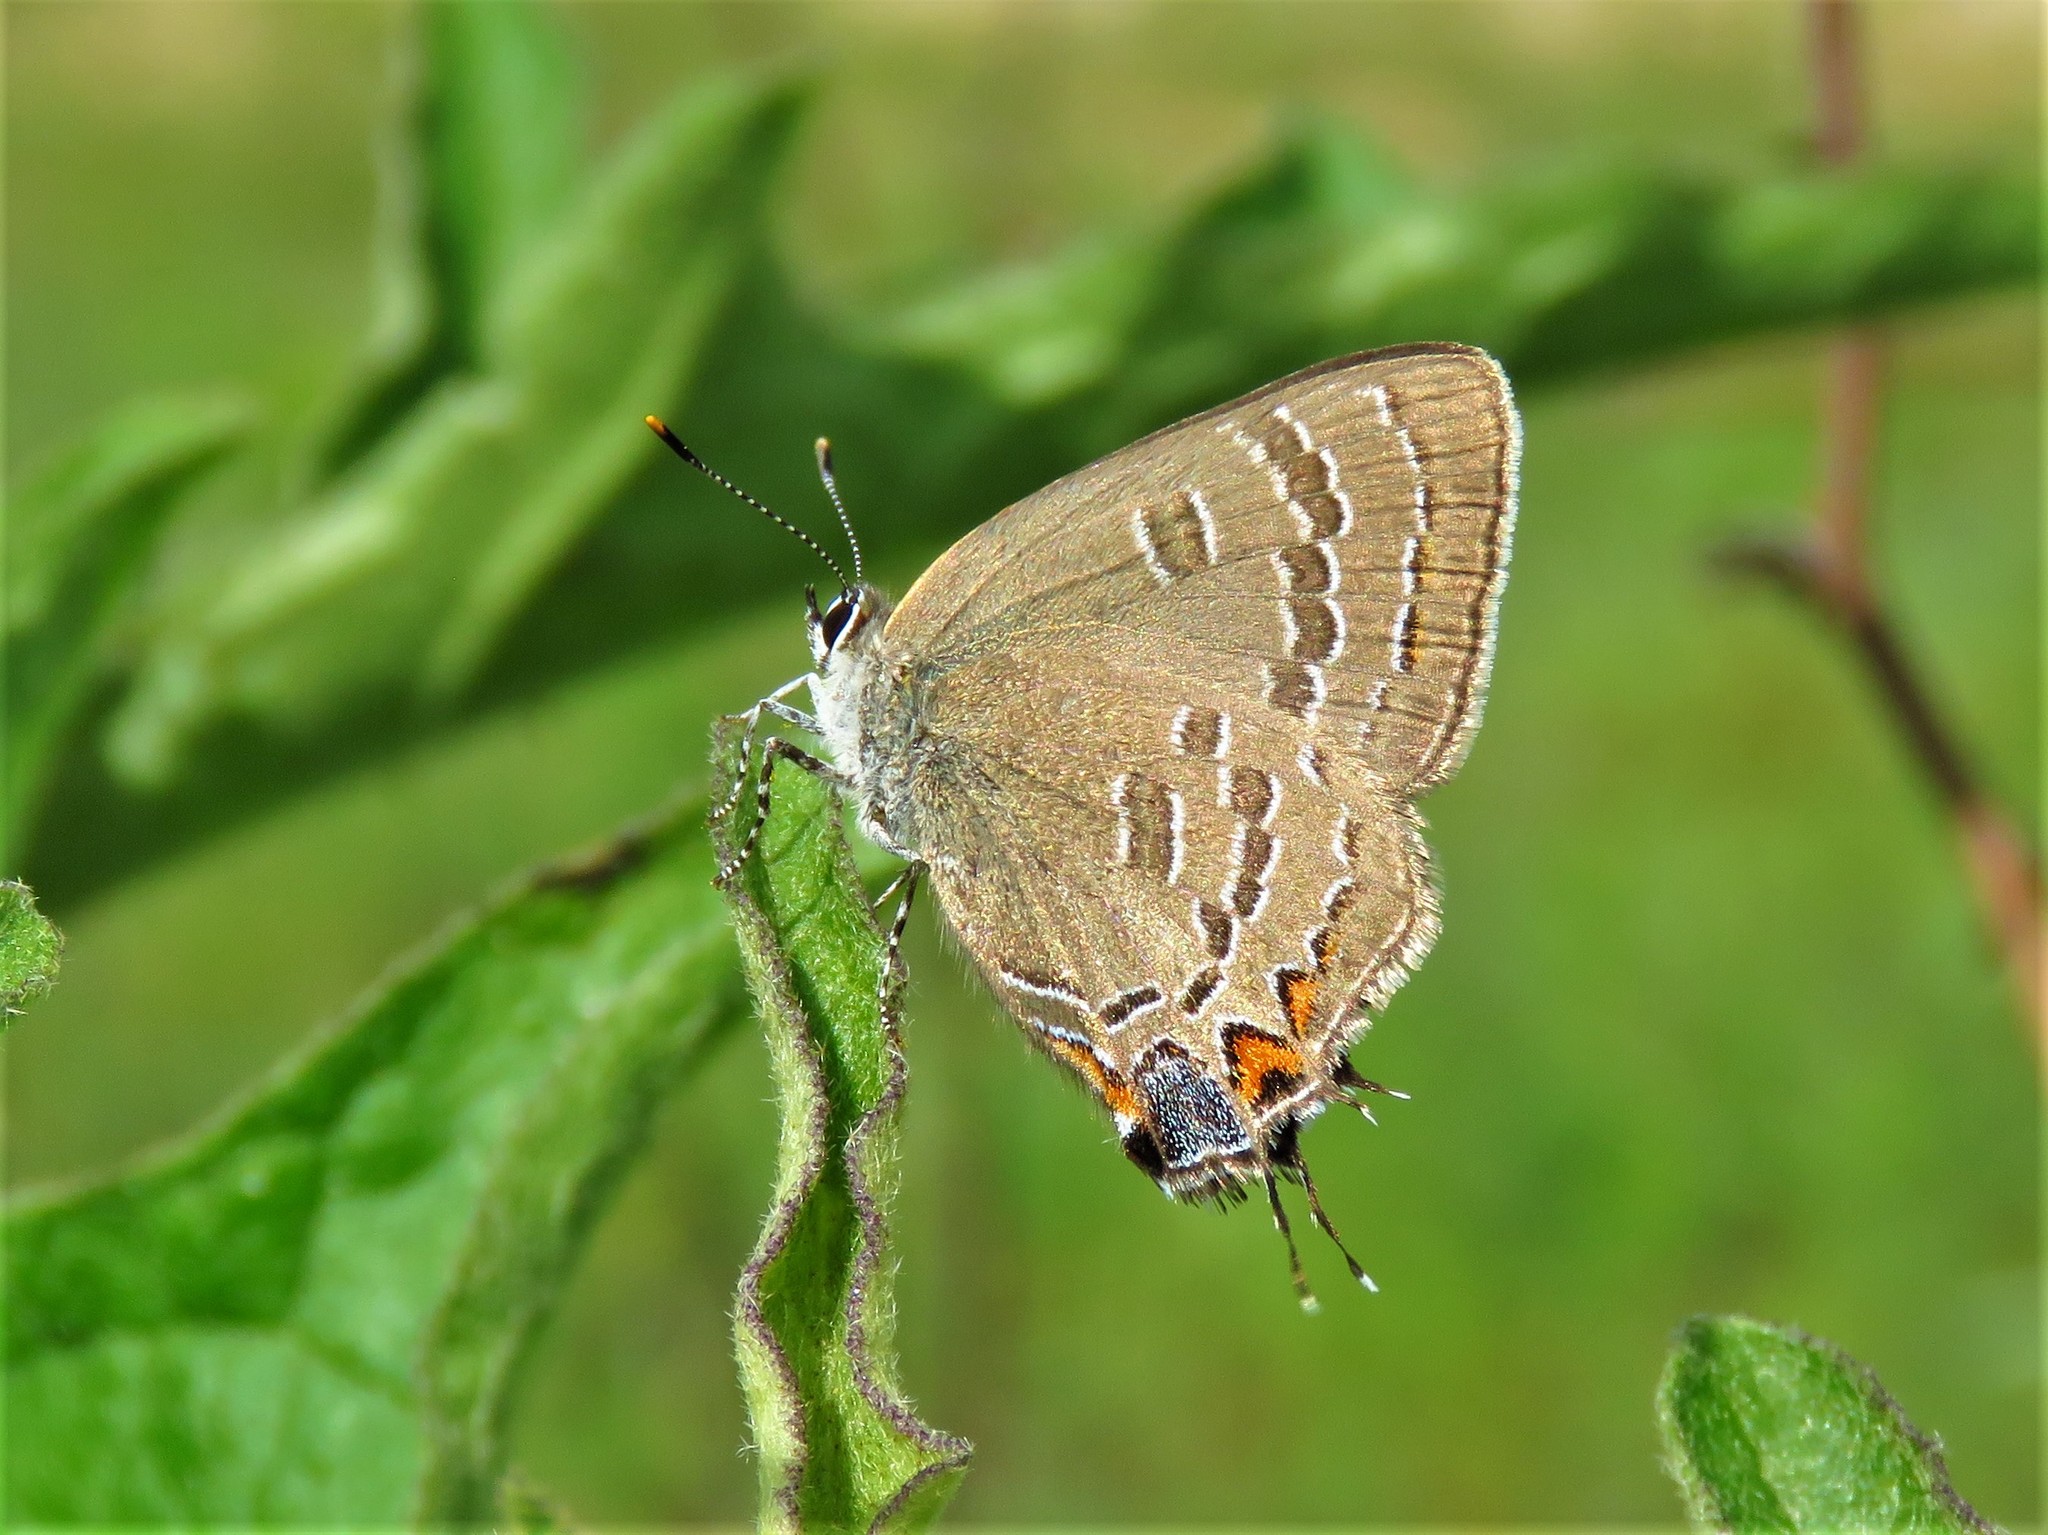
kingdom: Animalia
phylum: Arthropoda
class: Insecta
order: Lepidoptera
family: Lycaenidae
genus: Satyrium
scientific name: Satyrium calanus
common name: Banded hairstreak
